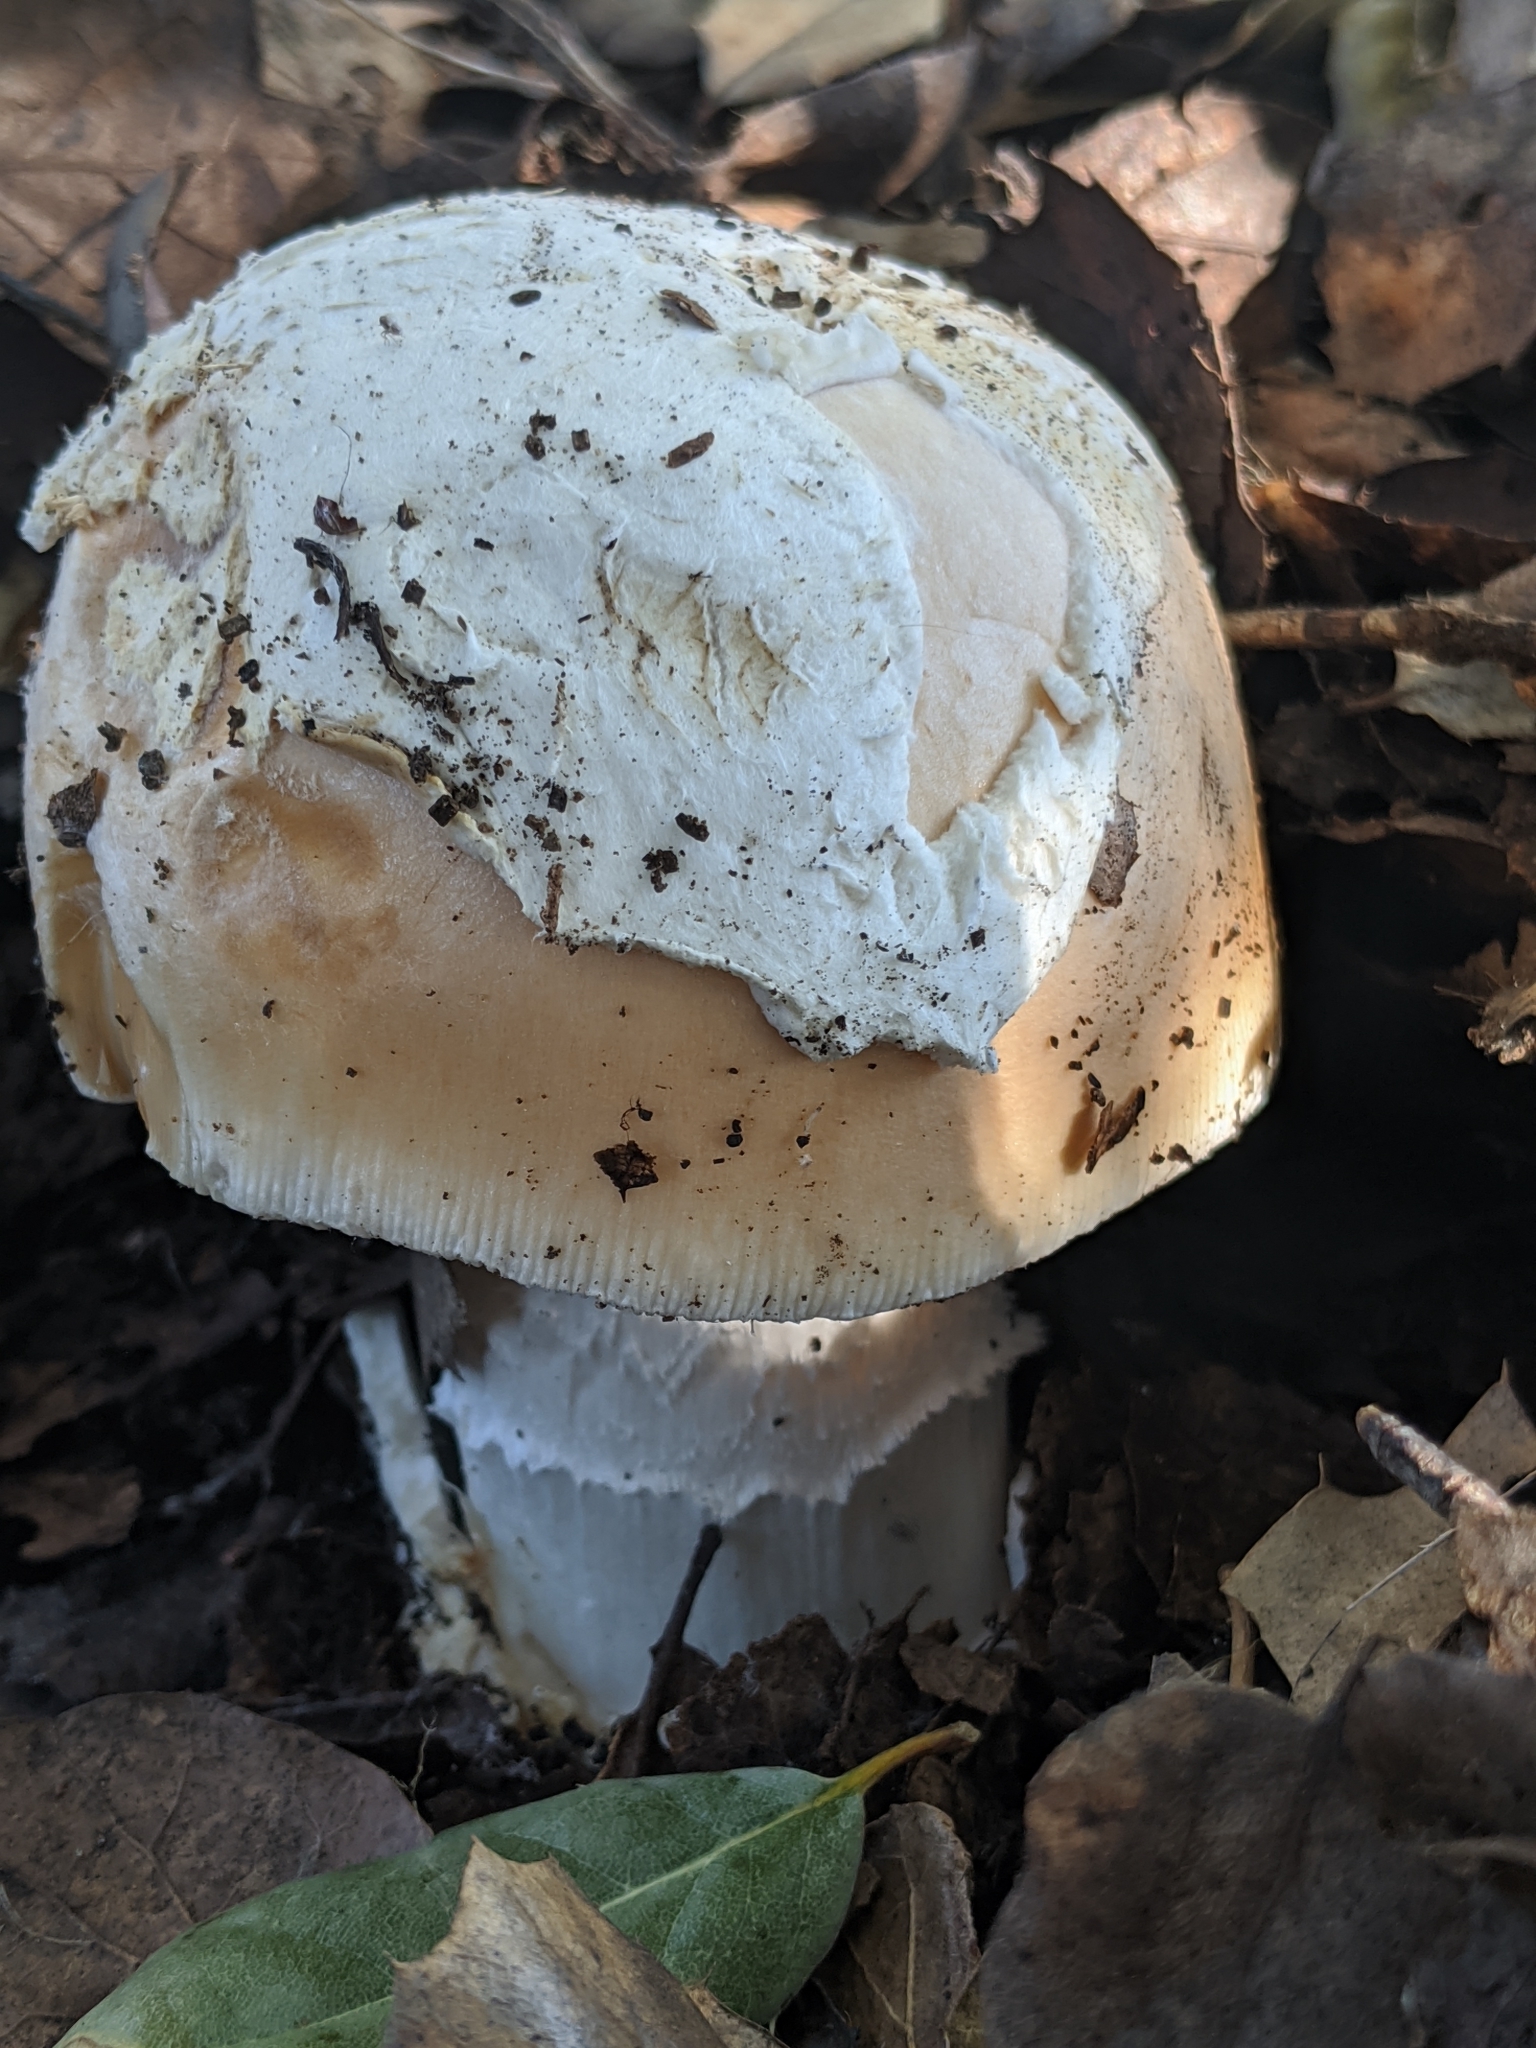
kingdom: Fungi
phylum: Basidiomycota
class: Agaricomycetes
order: Agaricales
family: Amanitaceae
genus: Amanita
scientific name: Amanita velosa
